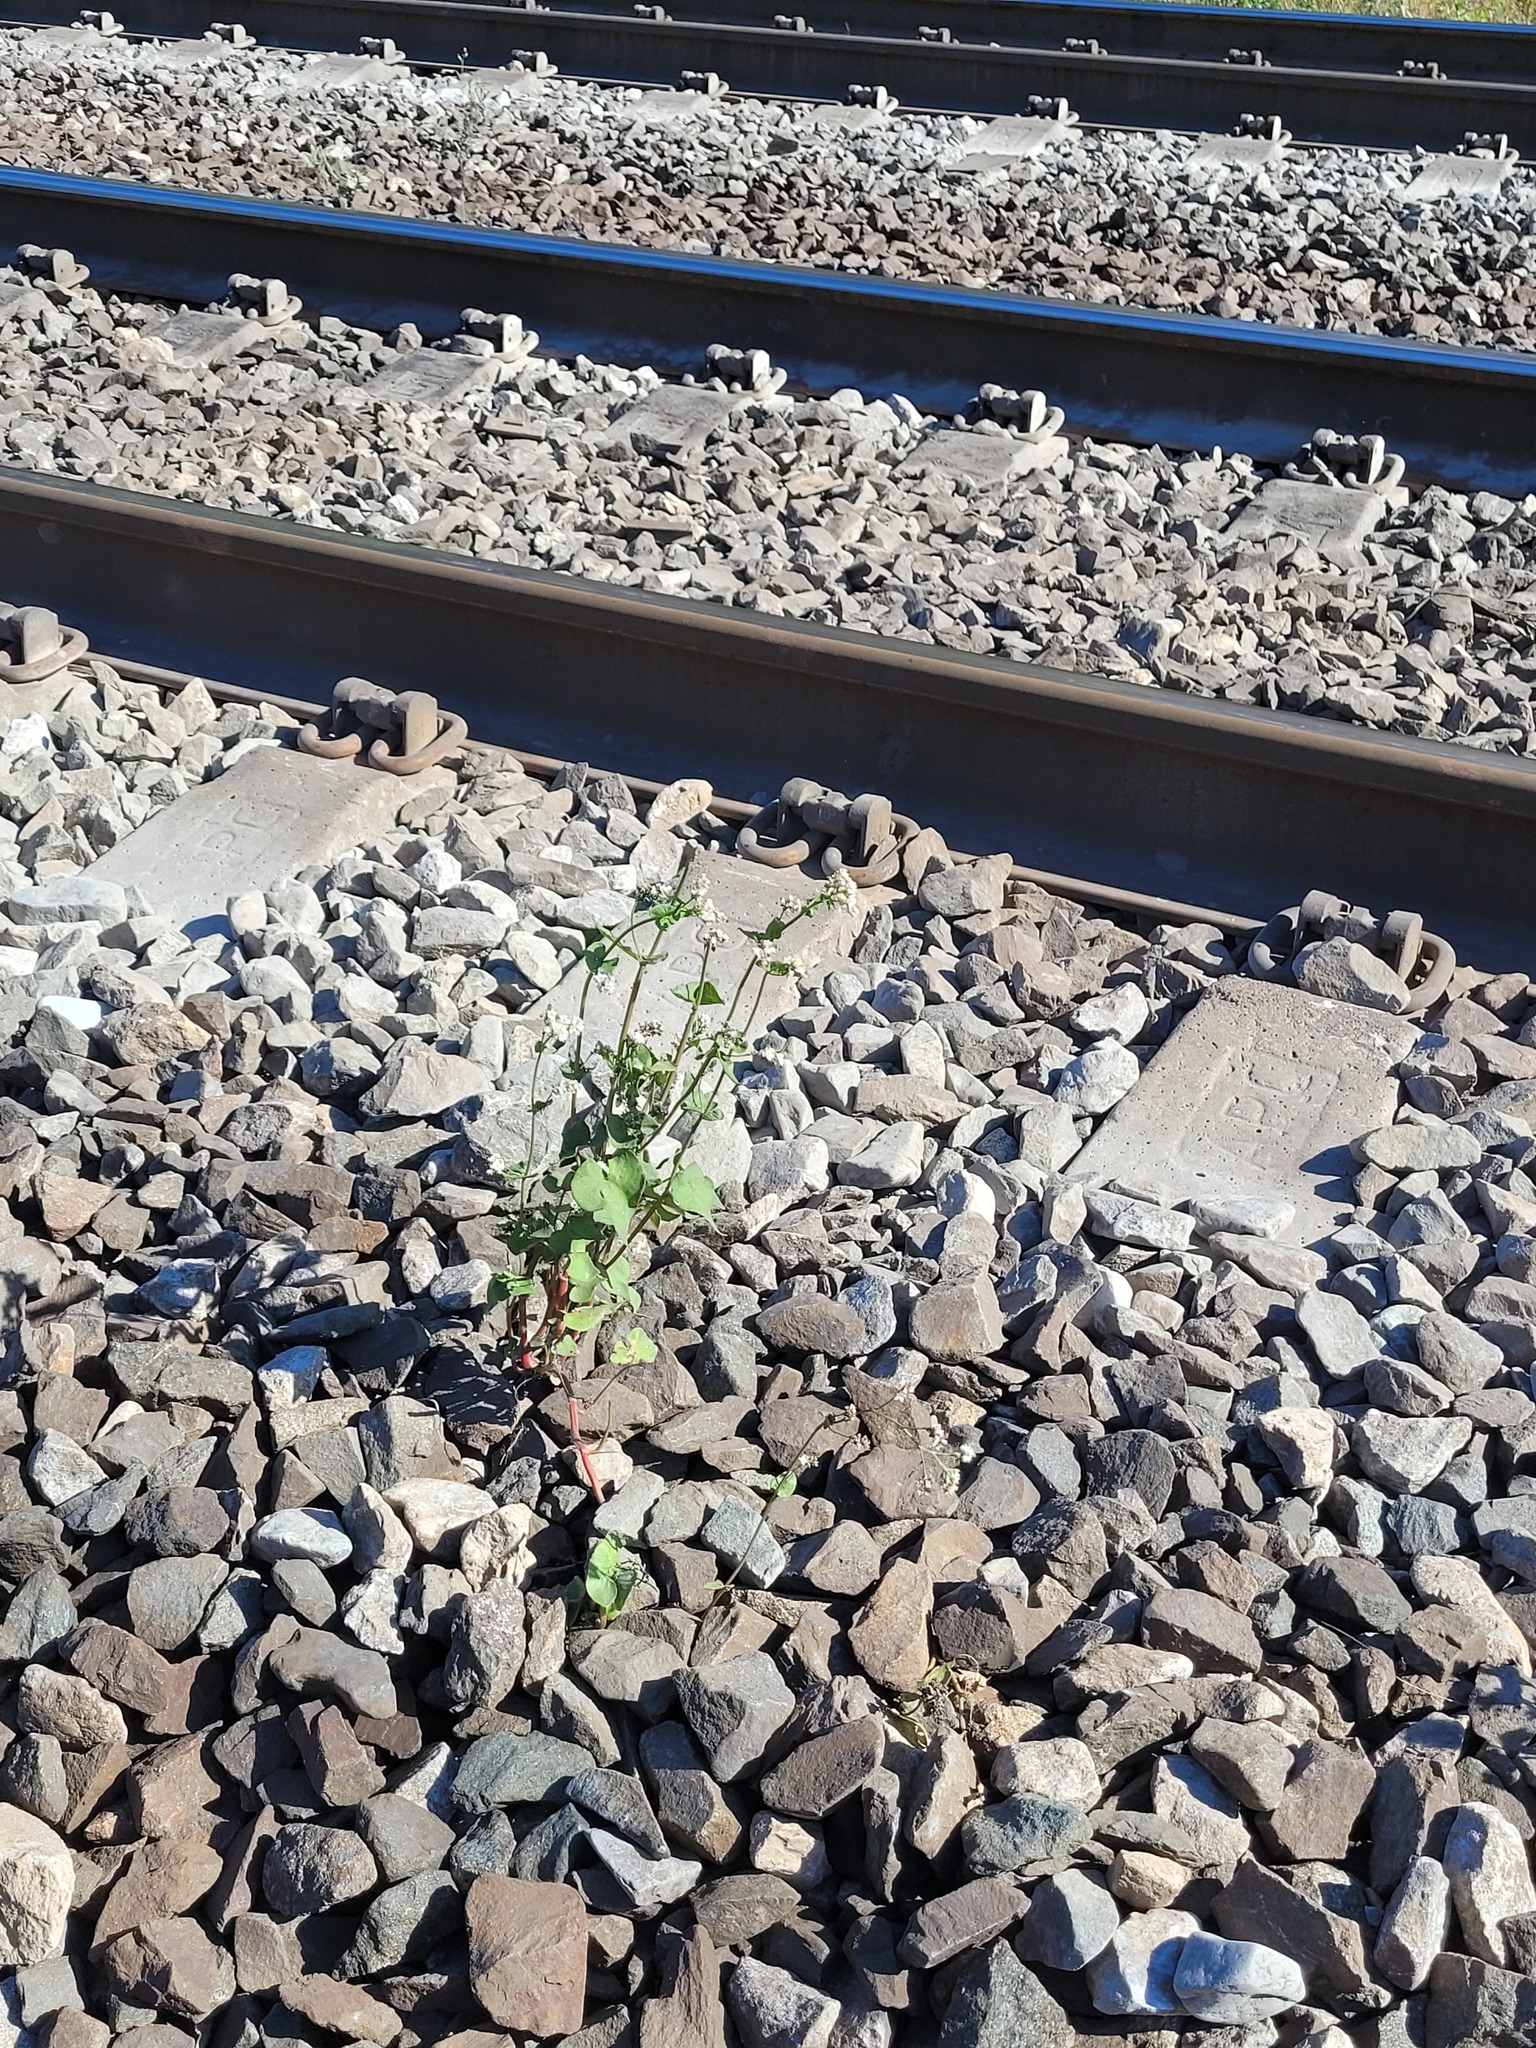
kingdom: Plantae
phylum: Tracheophyta
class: Magnoliopsida
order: Caryophyllales
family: Polygonaceae
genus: Fagopyrum
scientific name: Fagopyrum esculentum
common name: Buckwheat
